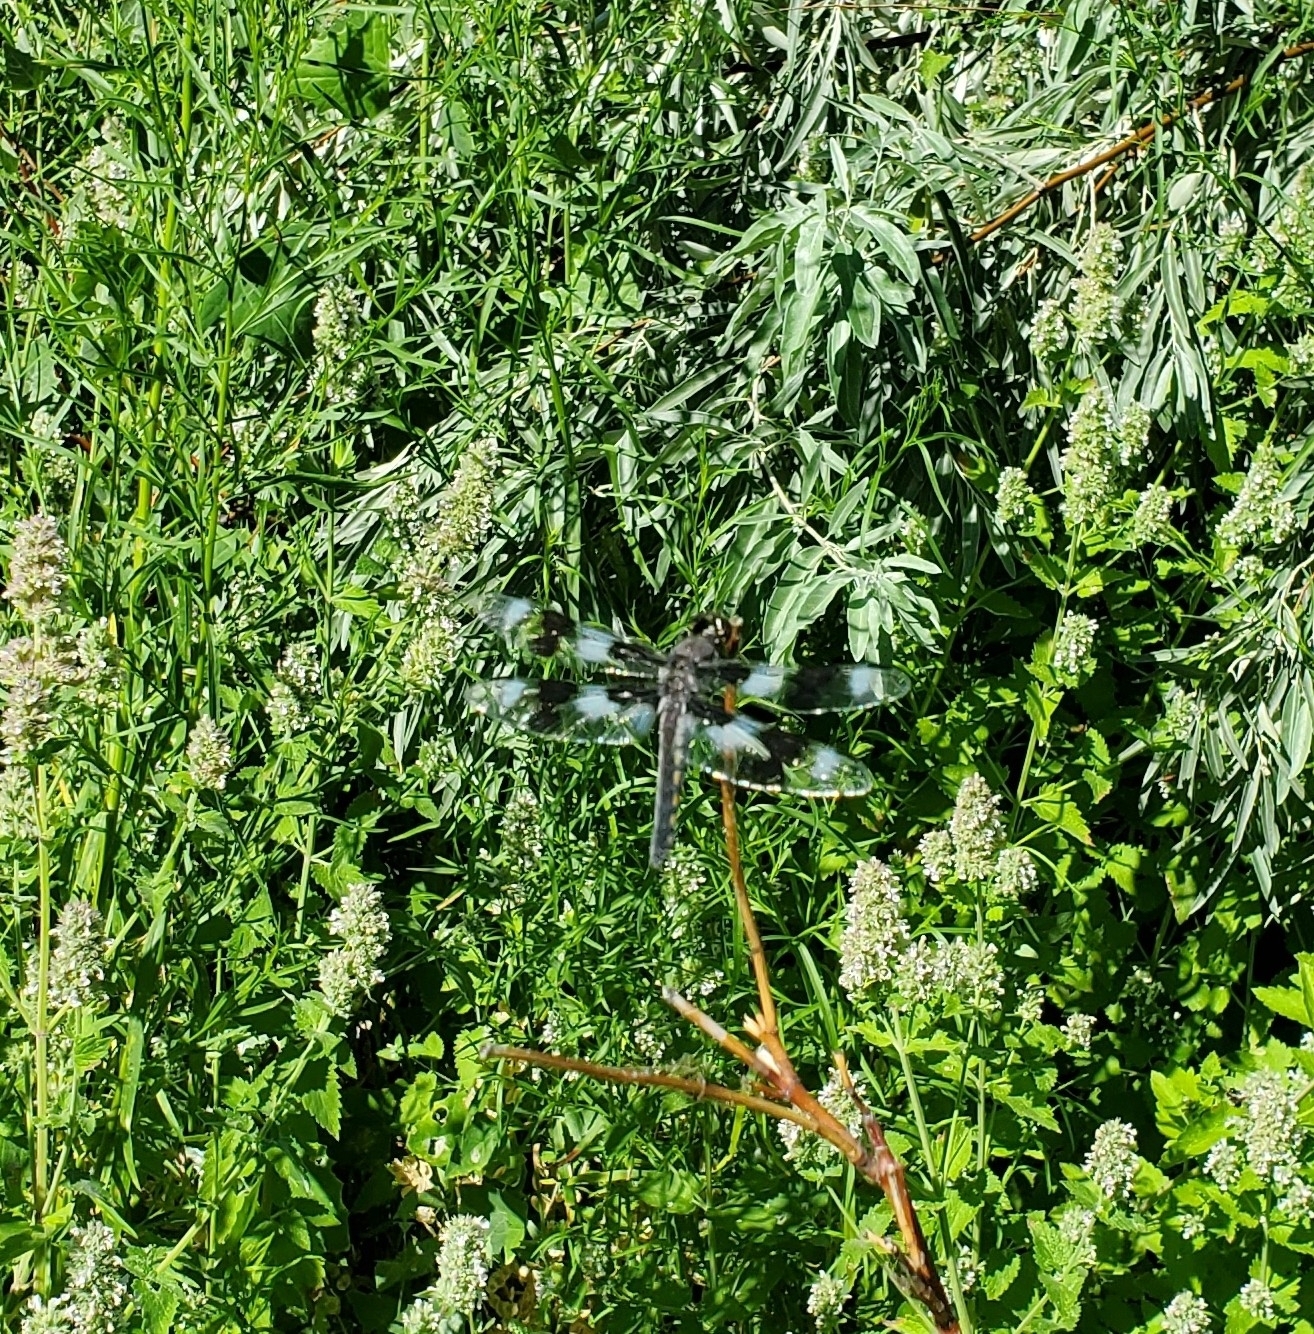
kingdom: Animalia
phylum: Arthropoda
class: Insecta
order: Odonata
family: Libellulidae
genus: Libellula
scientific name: Libellula forensis
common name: Eight-spotted skimmer
